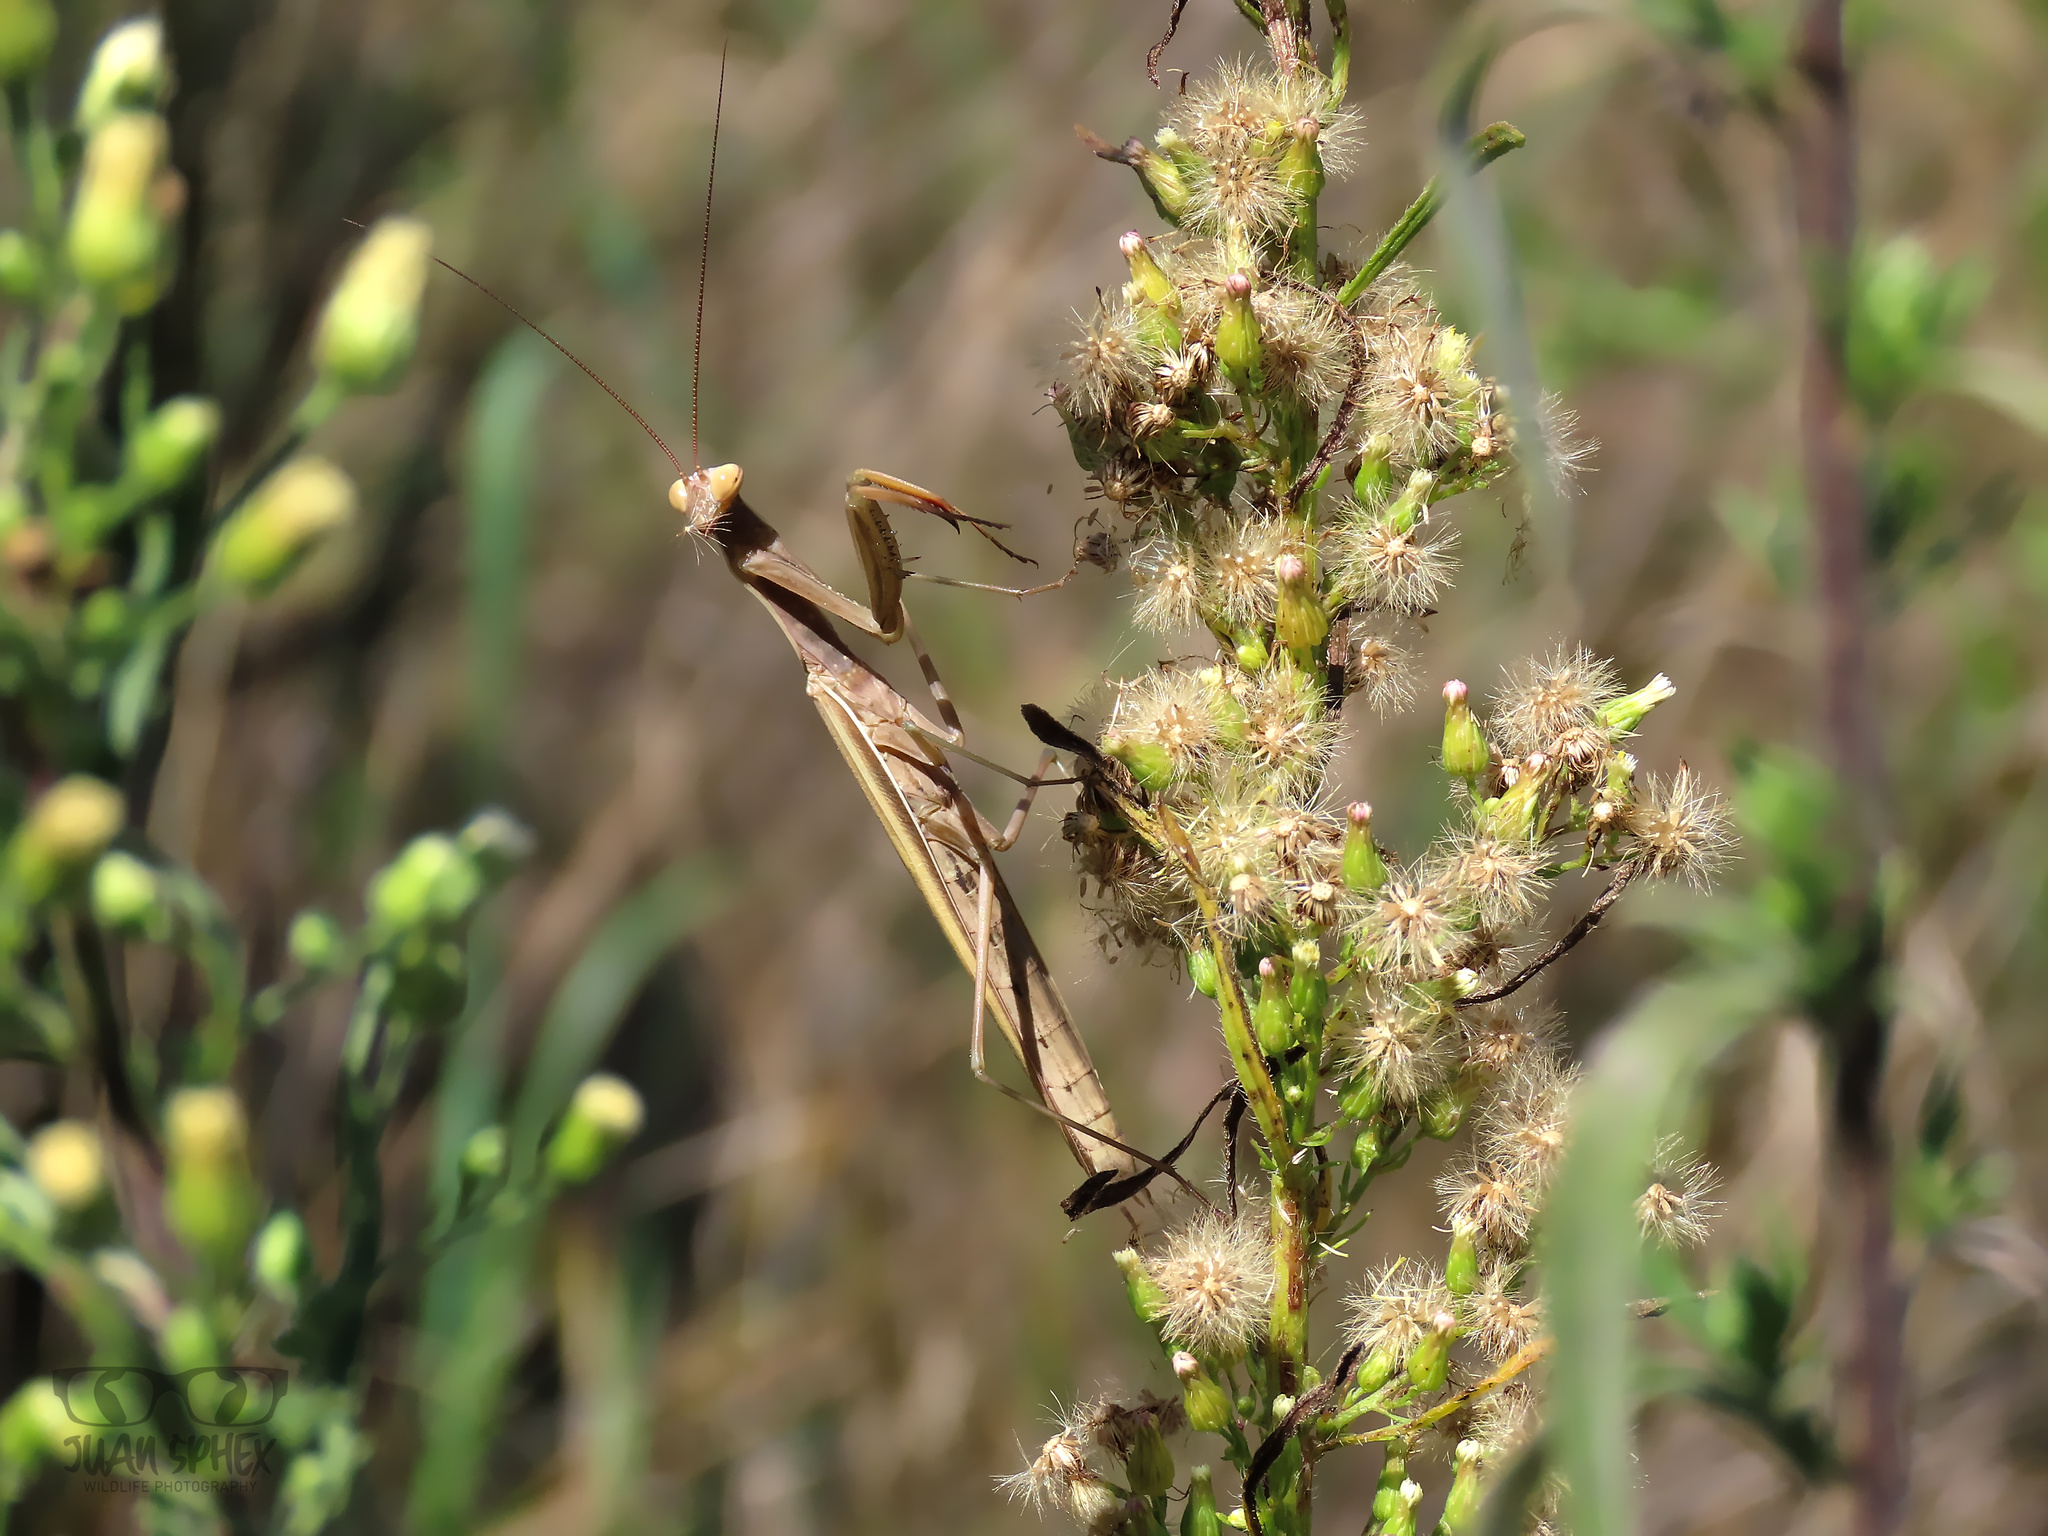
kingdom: Animalia
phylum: Arthropoda
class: Insecta
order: Mantodea
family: Mantidae
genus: Mantis
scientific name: Mantis religiosa
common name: Praying mantis
